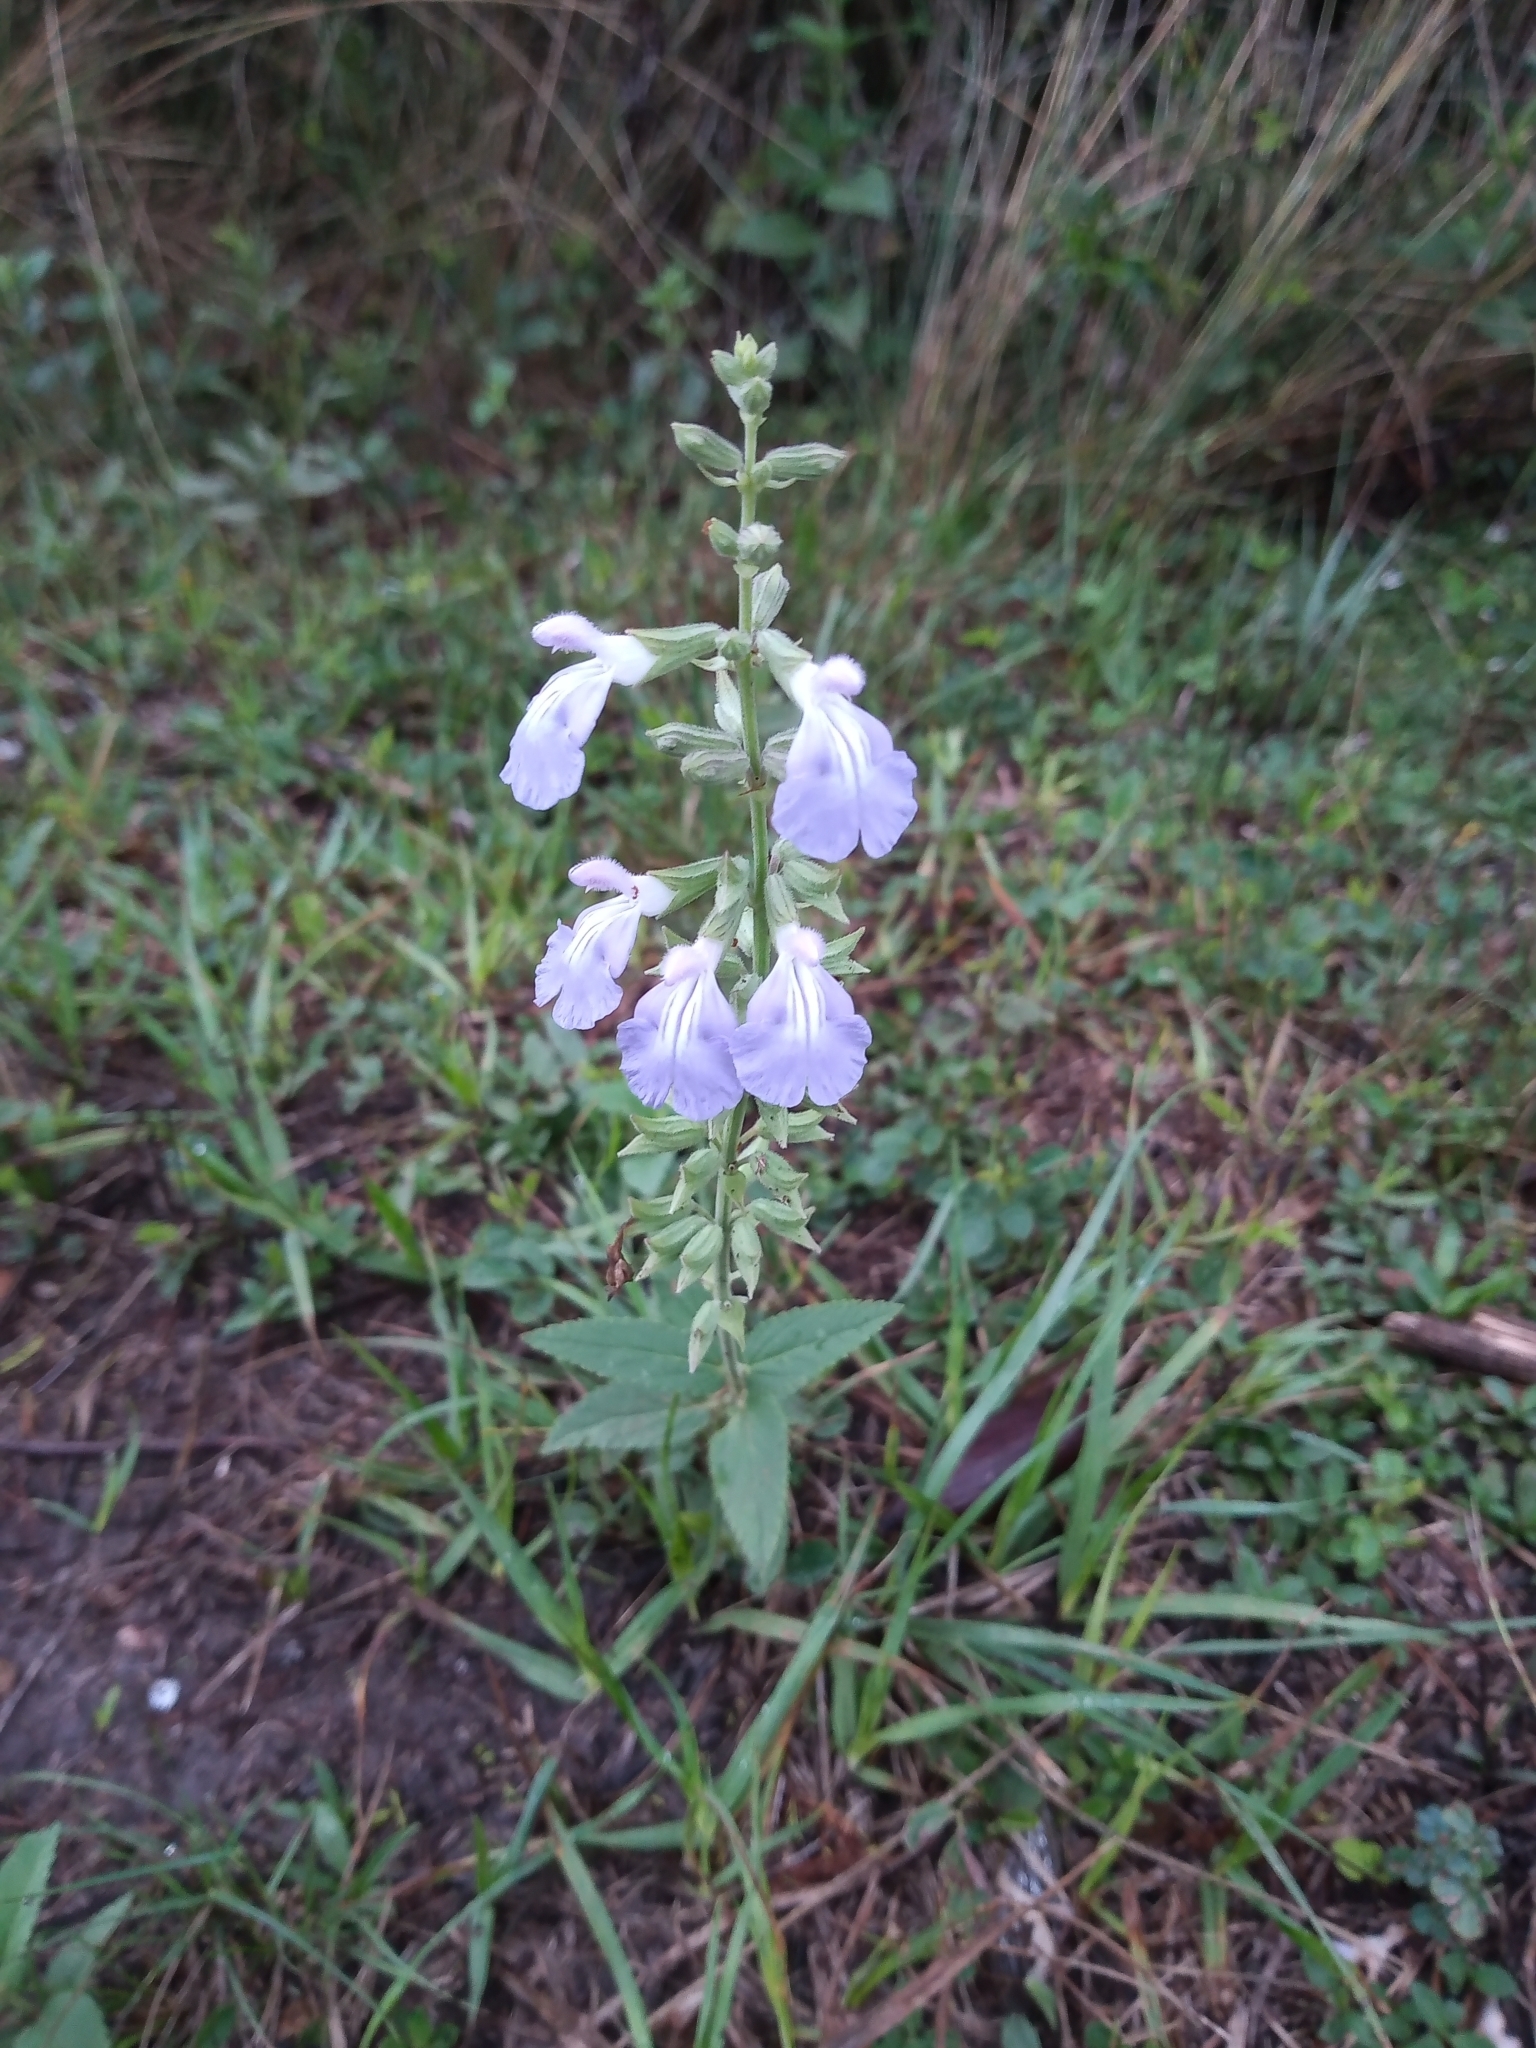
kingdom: Plantae
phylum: Tracheophyta
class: Magnoliopsida
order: Lamiales
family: Lamiaceae
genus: Salvia
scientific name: Salvia pallida
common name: Pale sage
